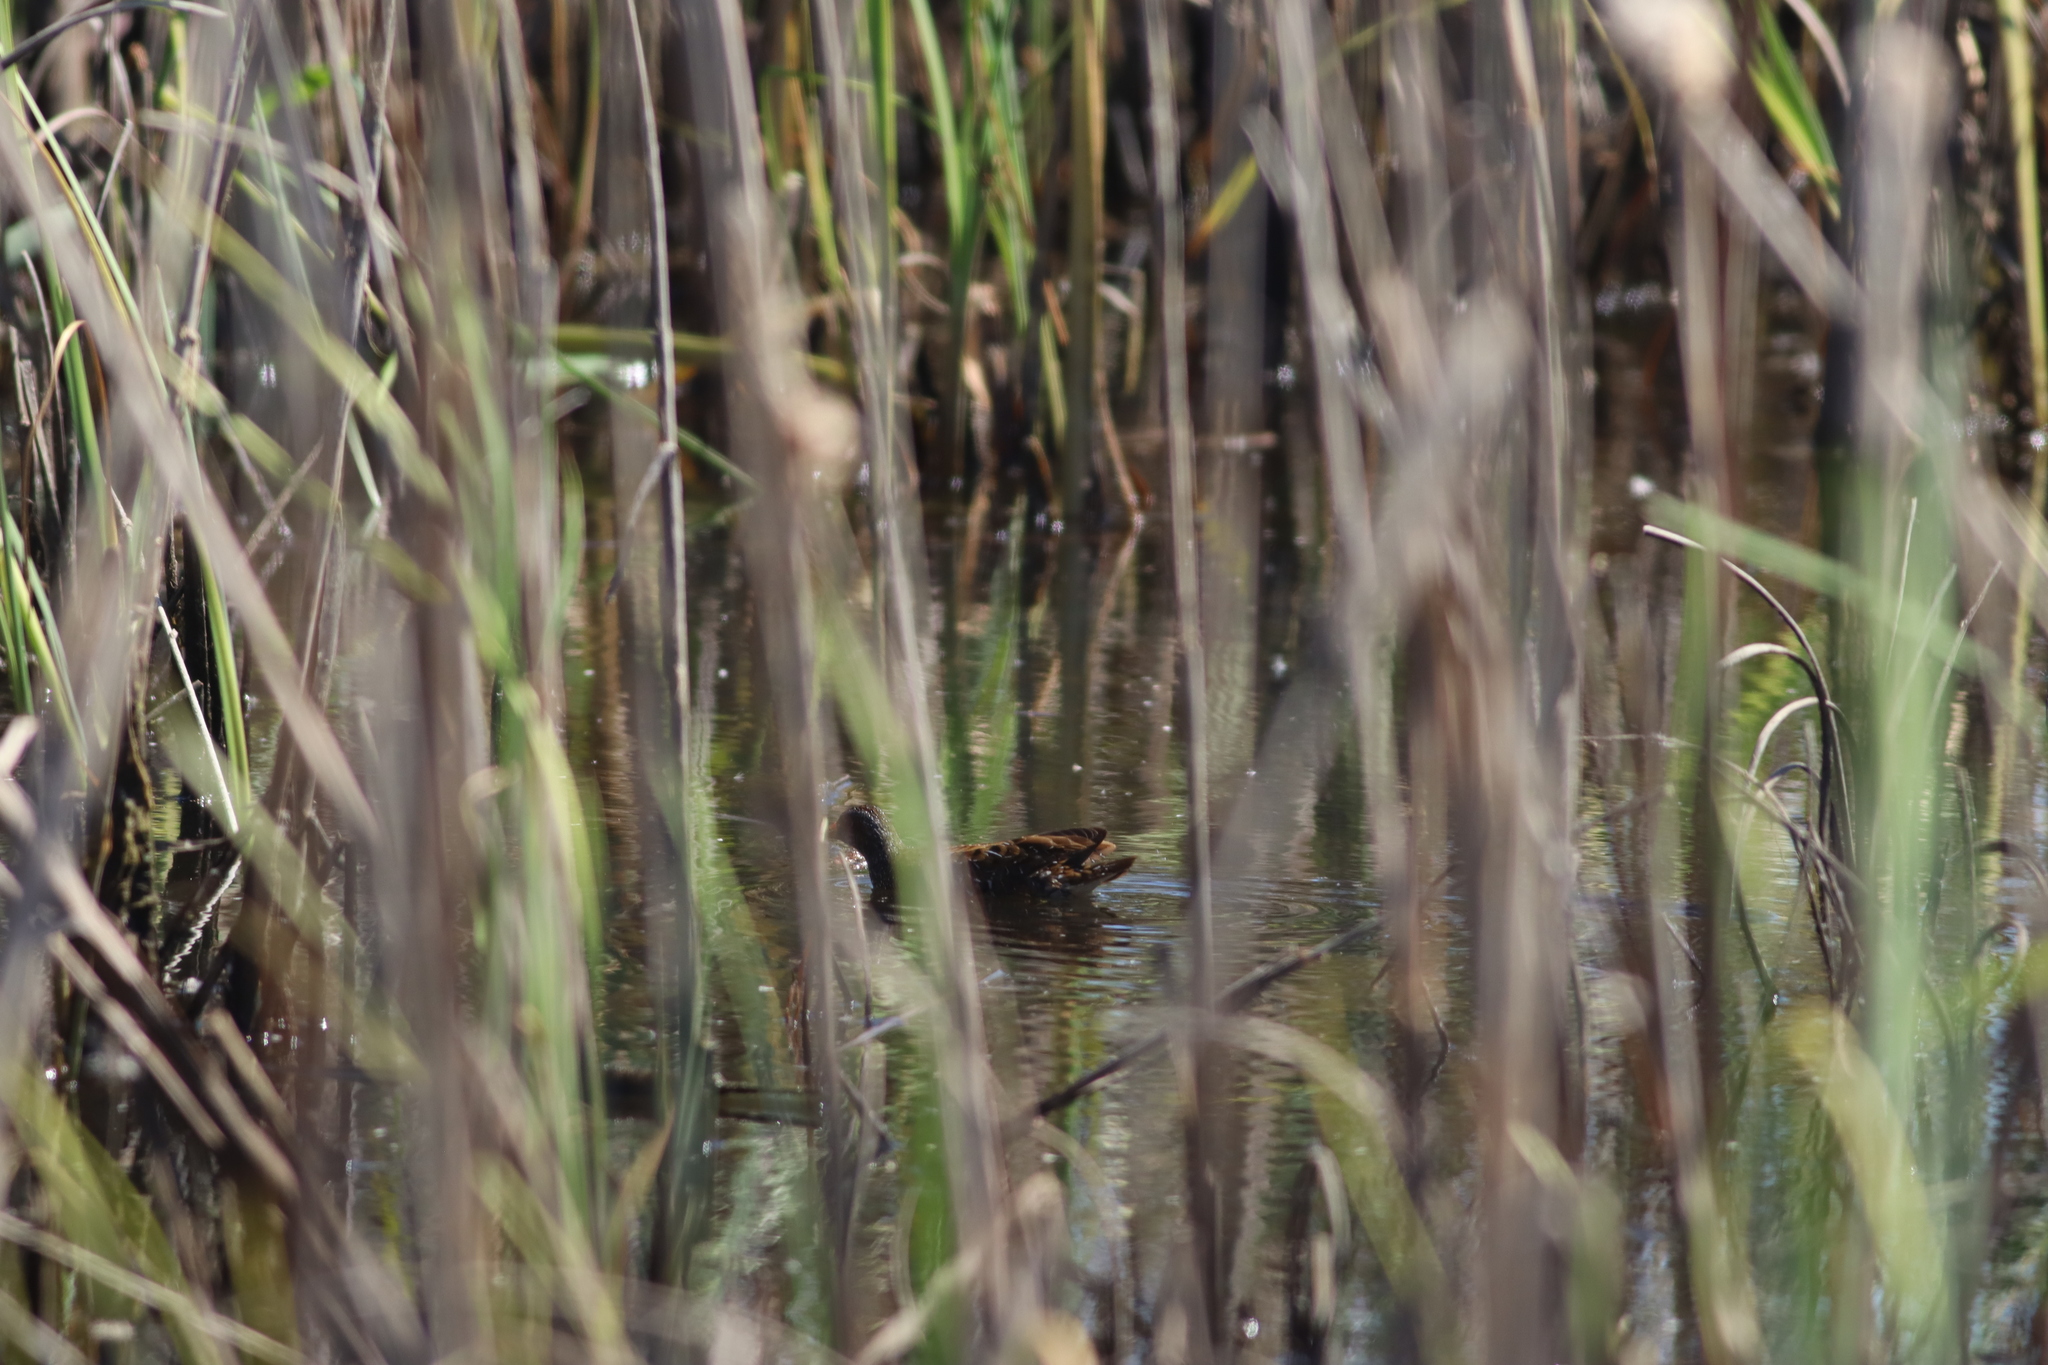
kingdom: Animalia
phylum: Chordata
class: Aves
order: Gruiformes
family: Rallidae
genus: Porzana
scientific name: Porzana porzana
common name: Spotted crake
